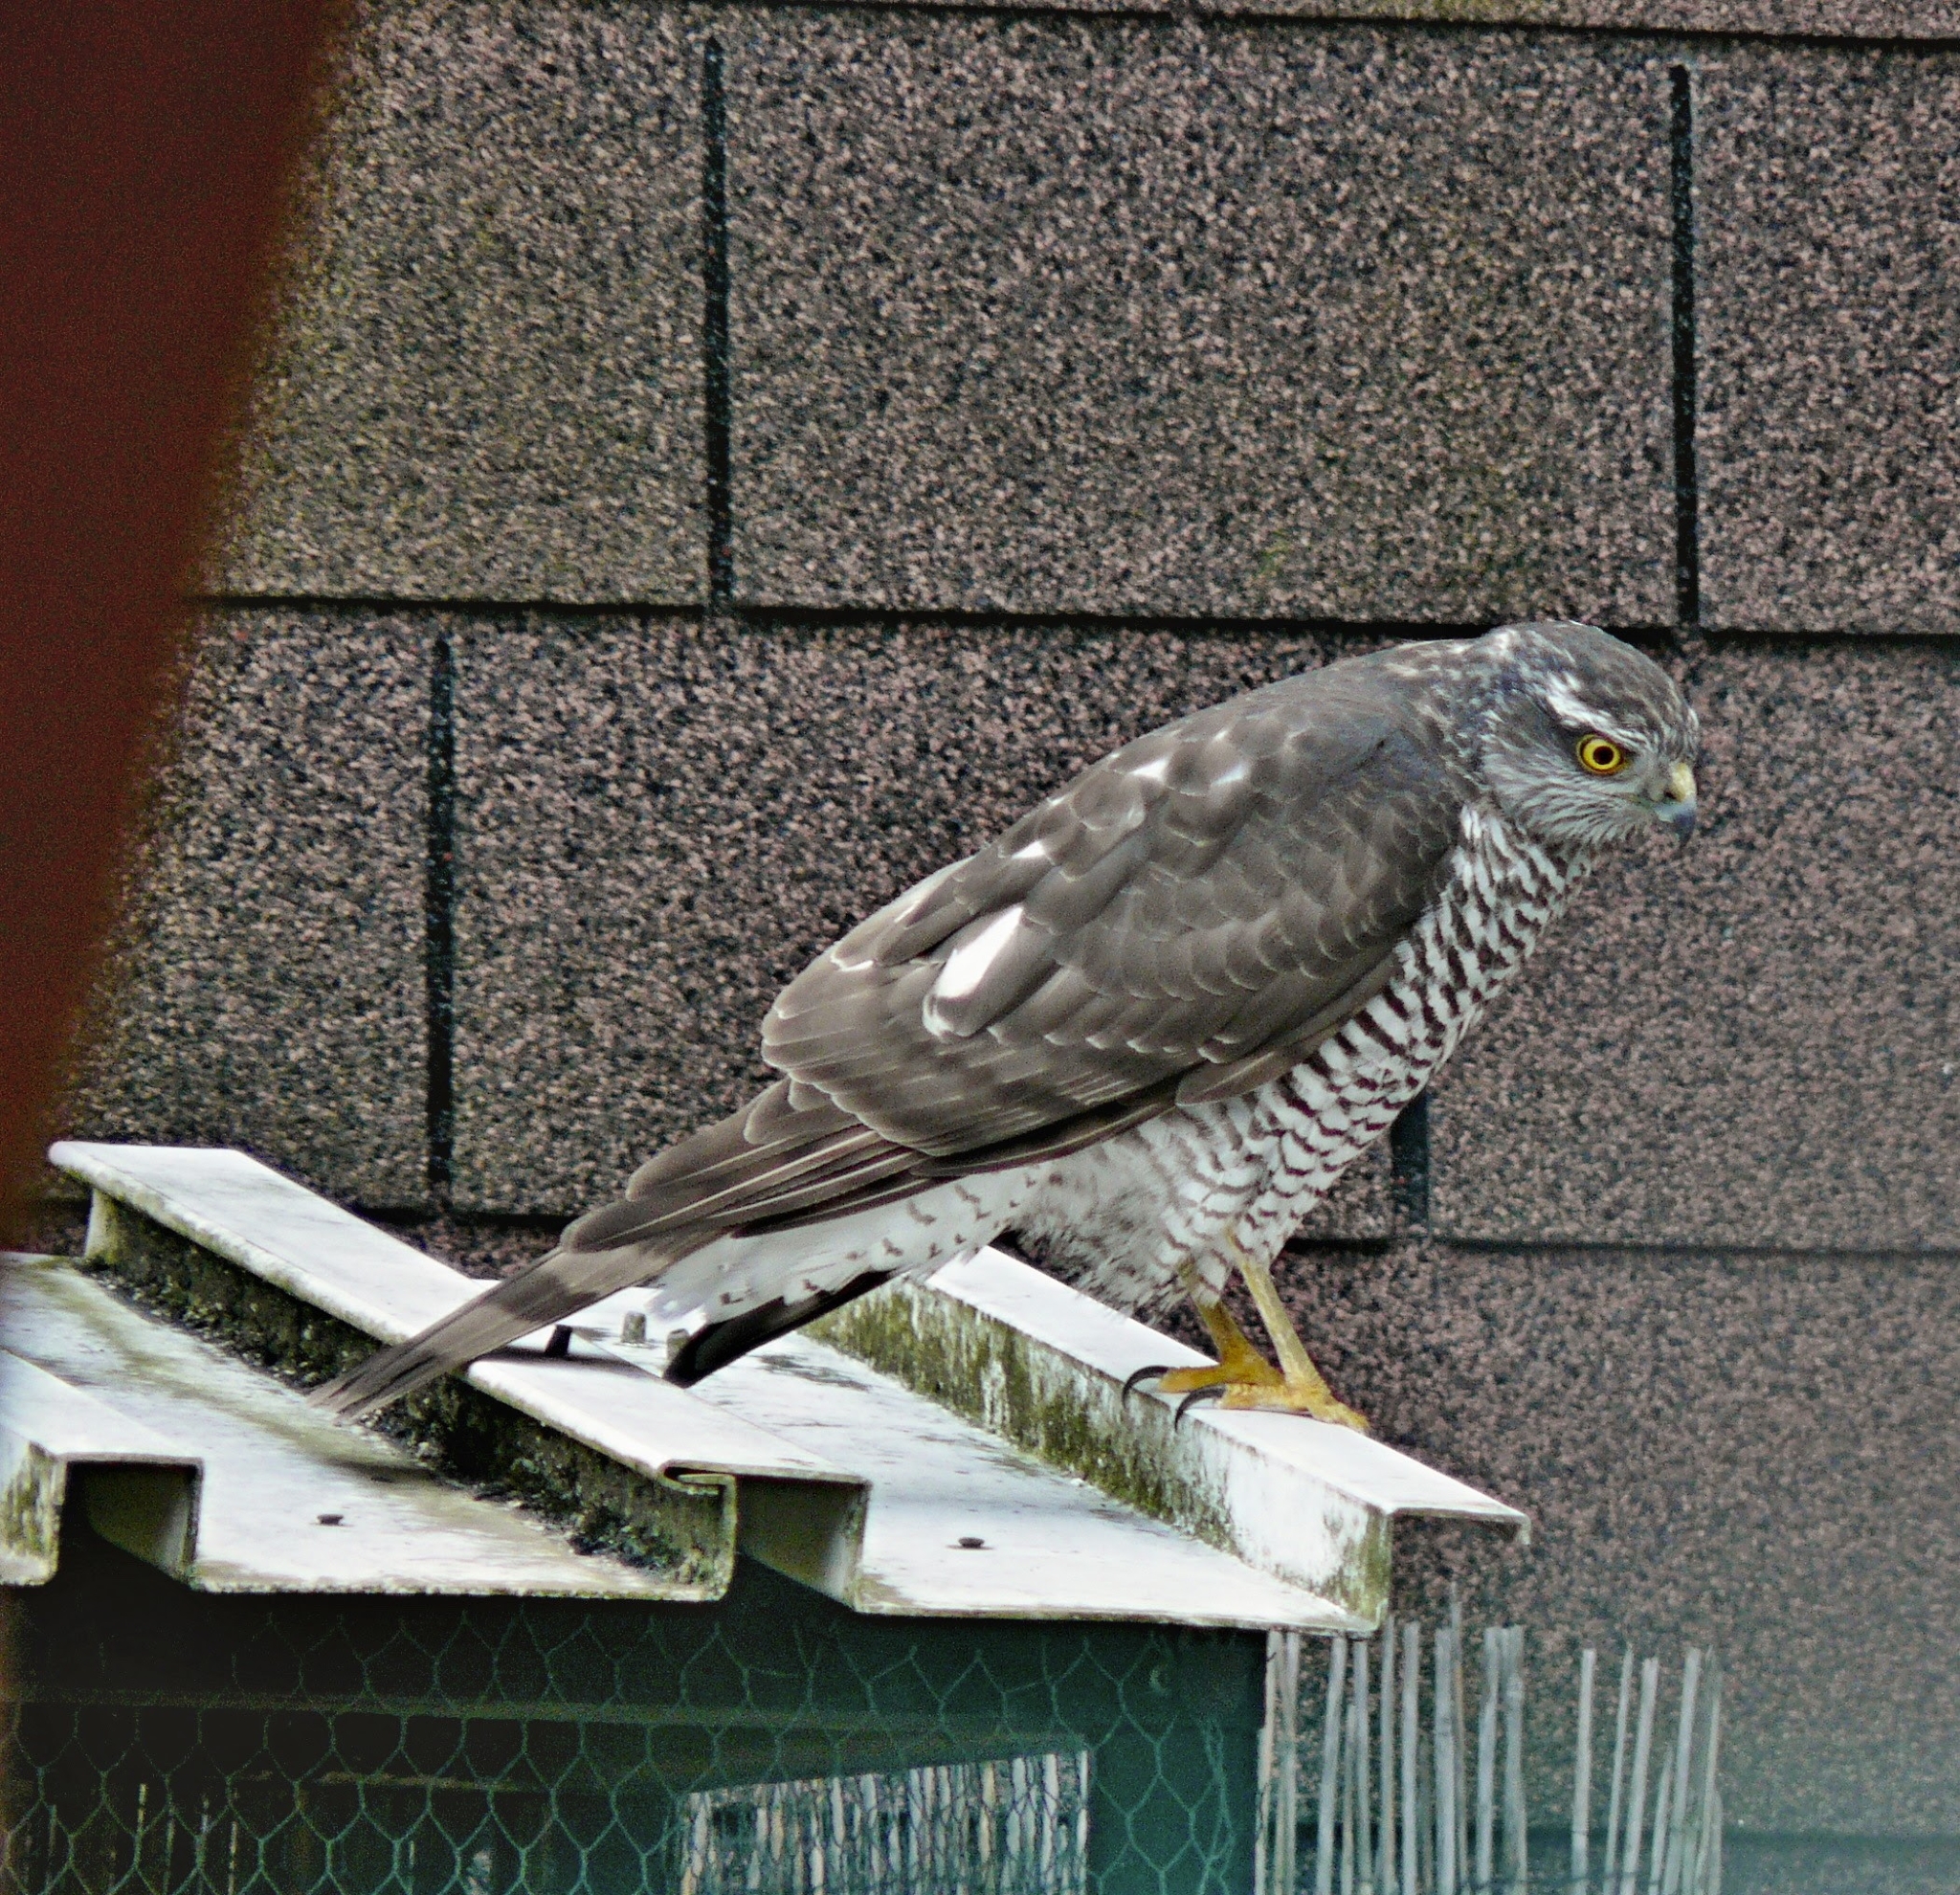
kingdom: Animalia
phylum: Chordata
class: Aves
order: Accipitriformes
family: Accipitridae
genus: Accipiter
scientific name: Accipiter nisus
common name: Eurasian sparrowhawk
